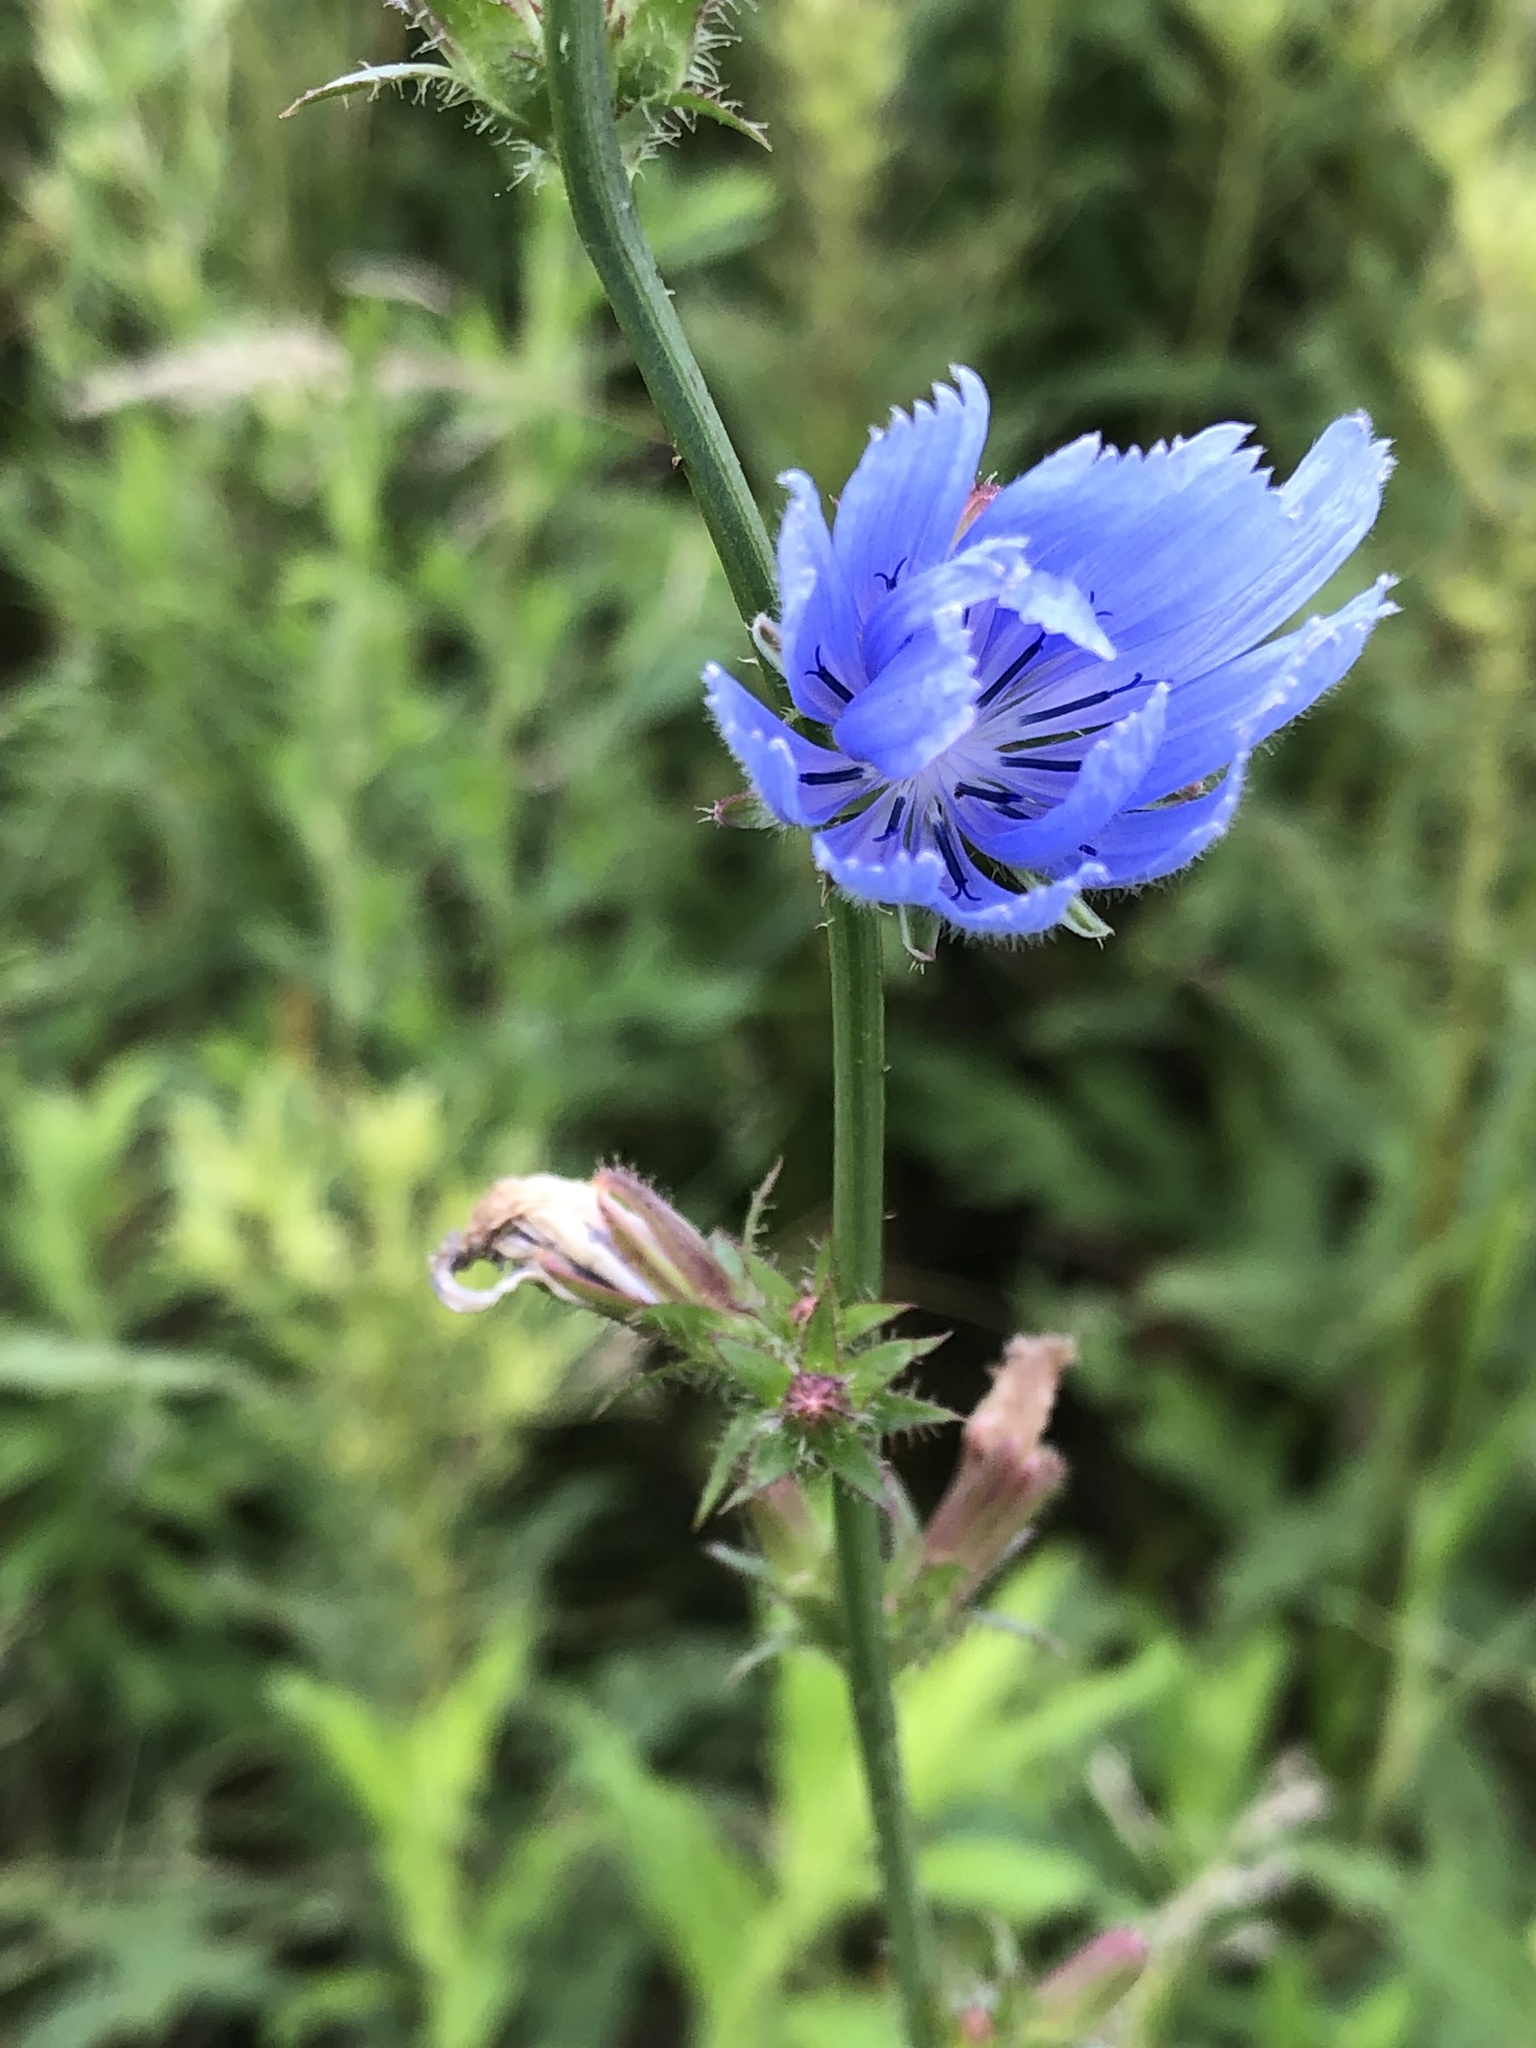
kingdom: Plantae
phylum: Tracheophyta
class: Magnoliopsida
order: Asterales
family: Asteraceae
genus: Cichorium
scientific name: Cichorium intybus
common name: Chicory
